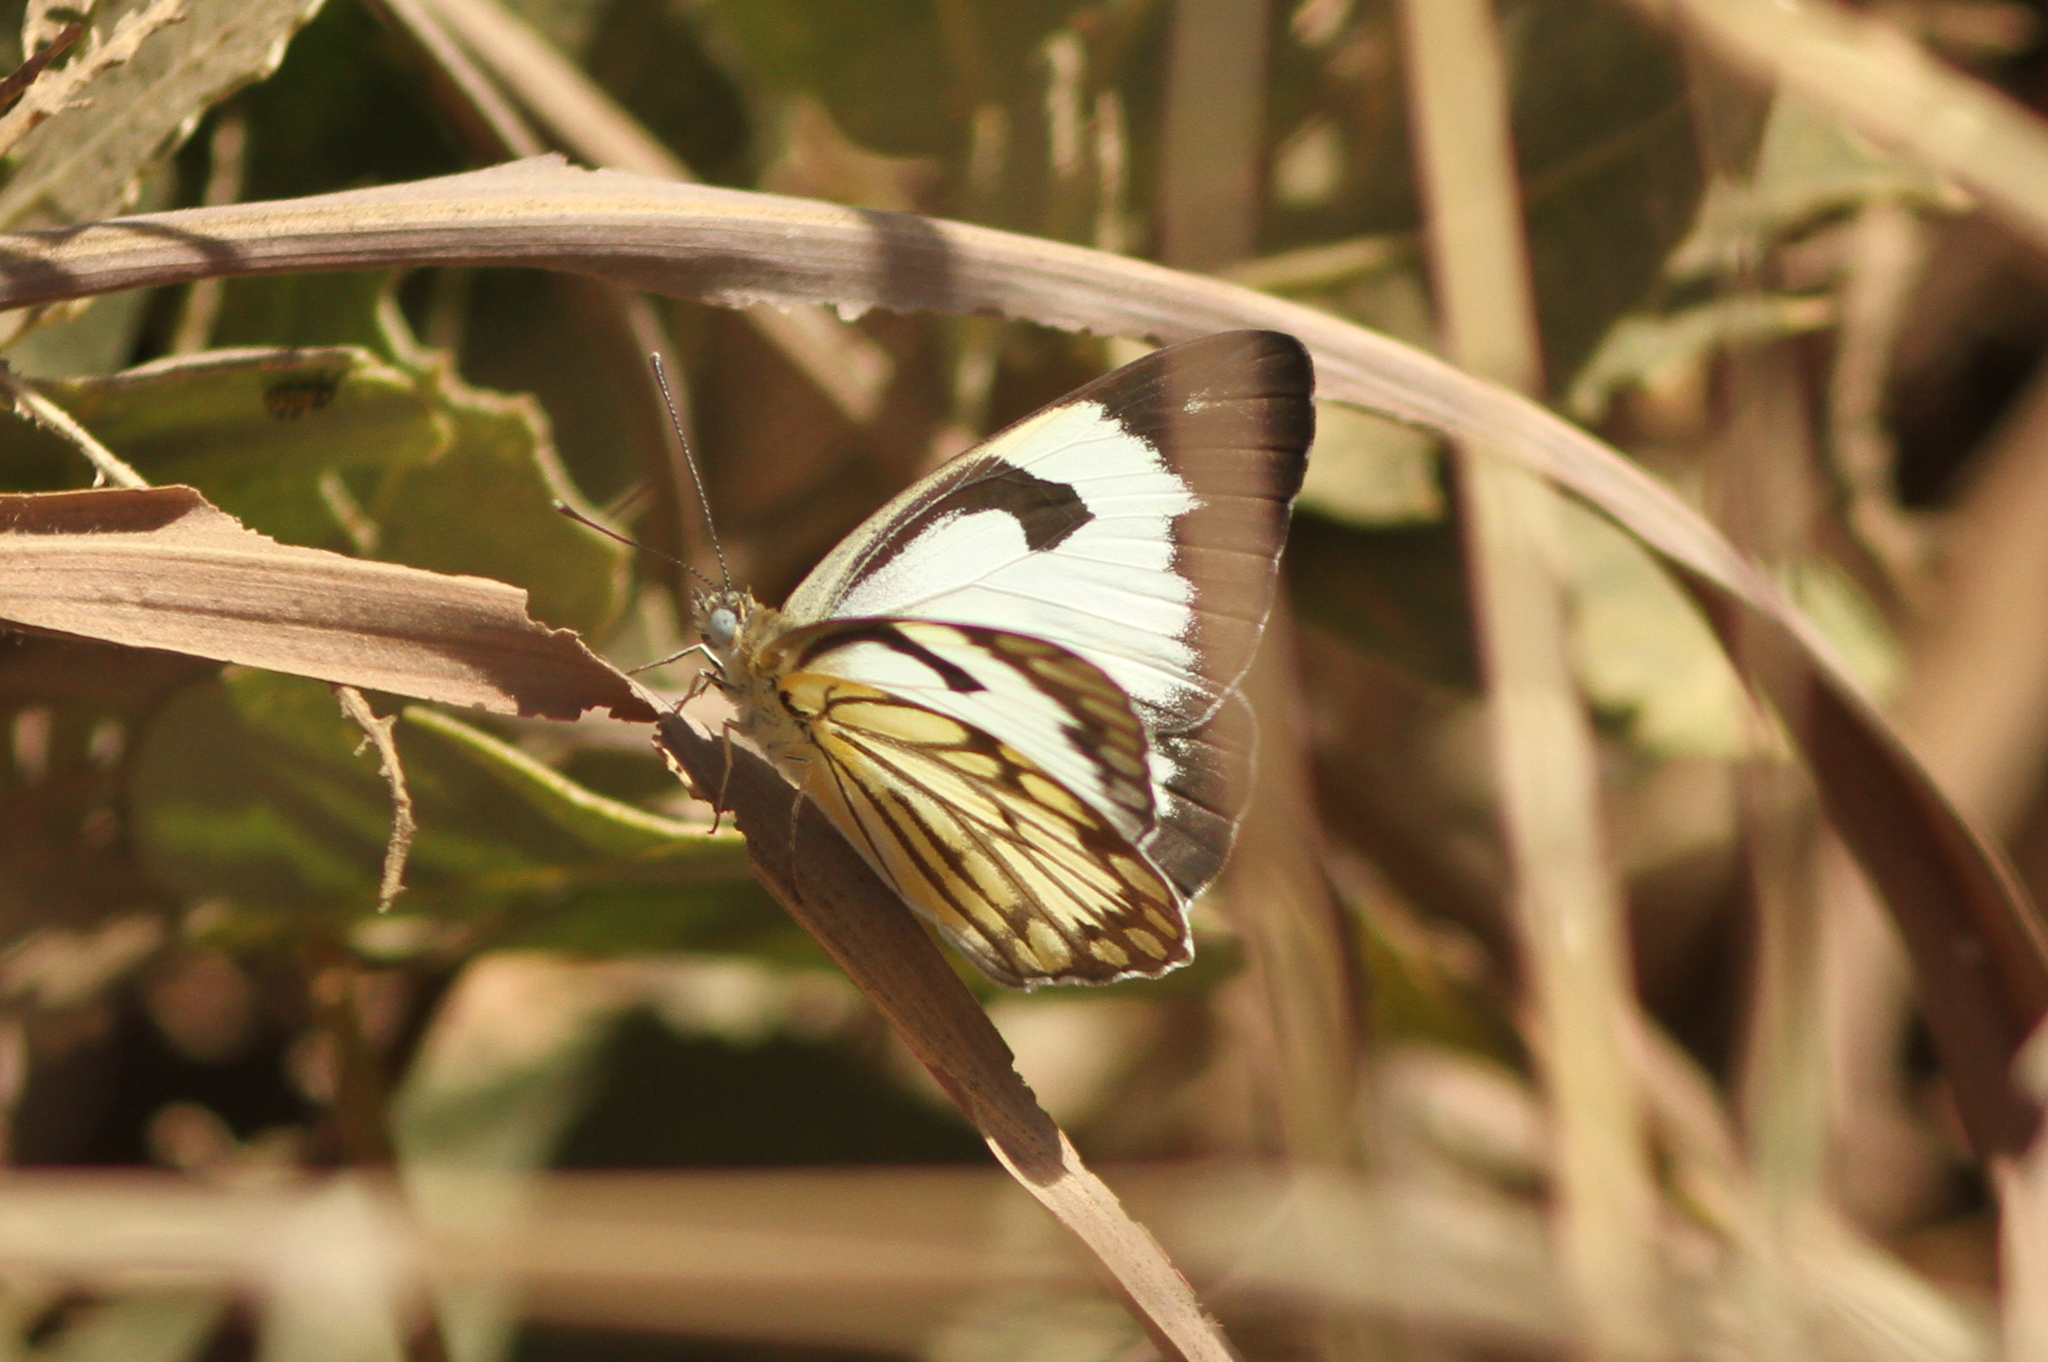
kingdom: Animalia
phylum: Arthropoda
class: Insecta
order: Lepidoptera
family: Pieridae
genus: Belenois
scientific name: Belenois aurota
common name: Brown-veined white
